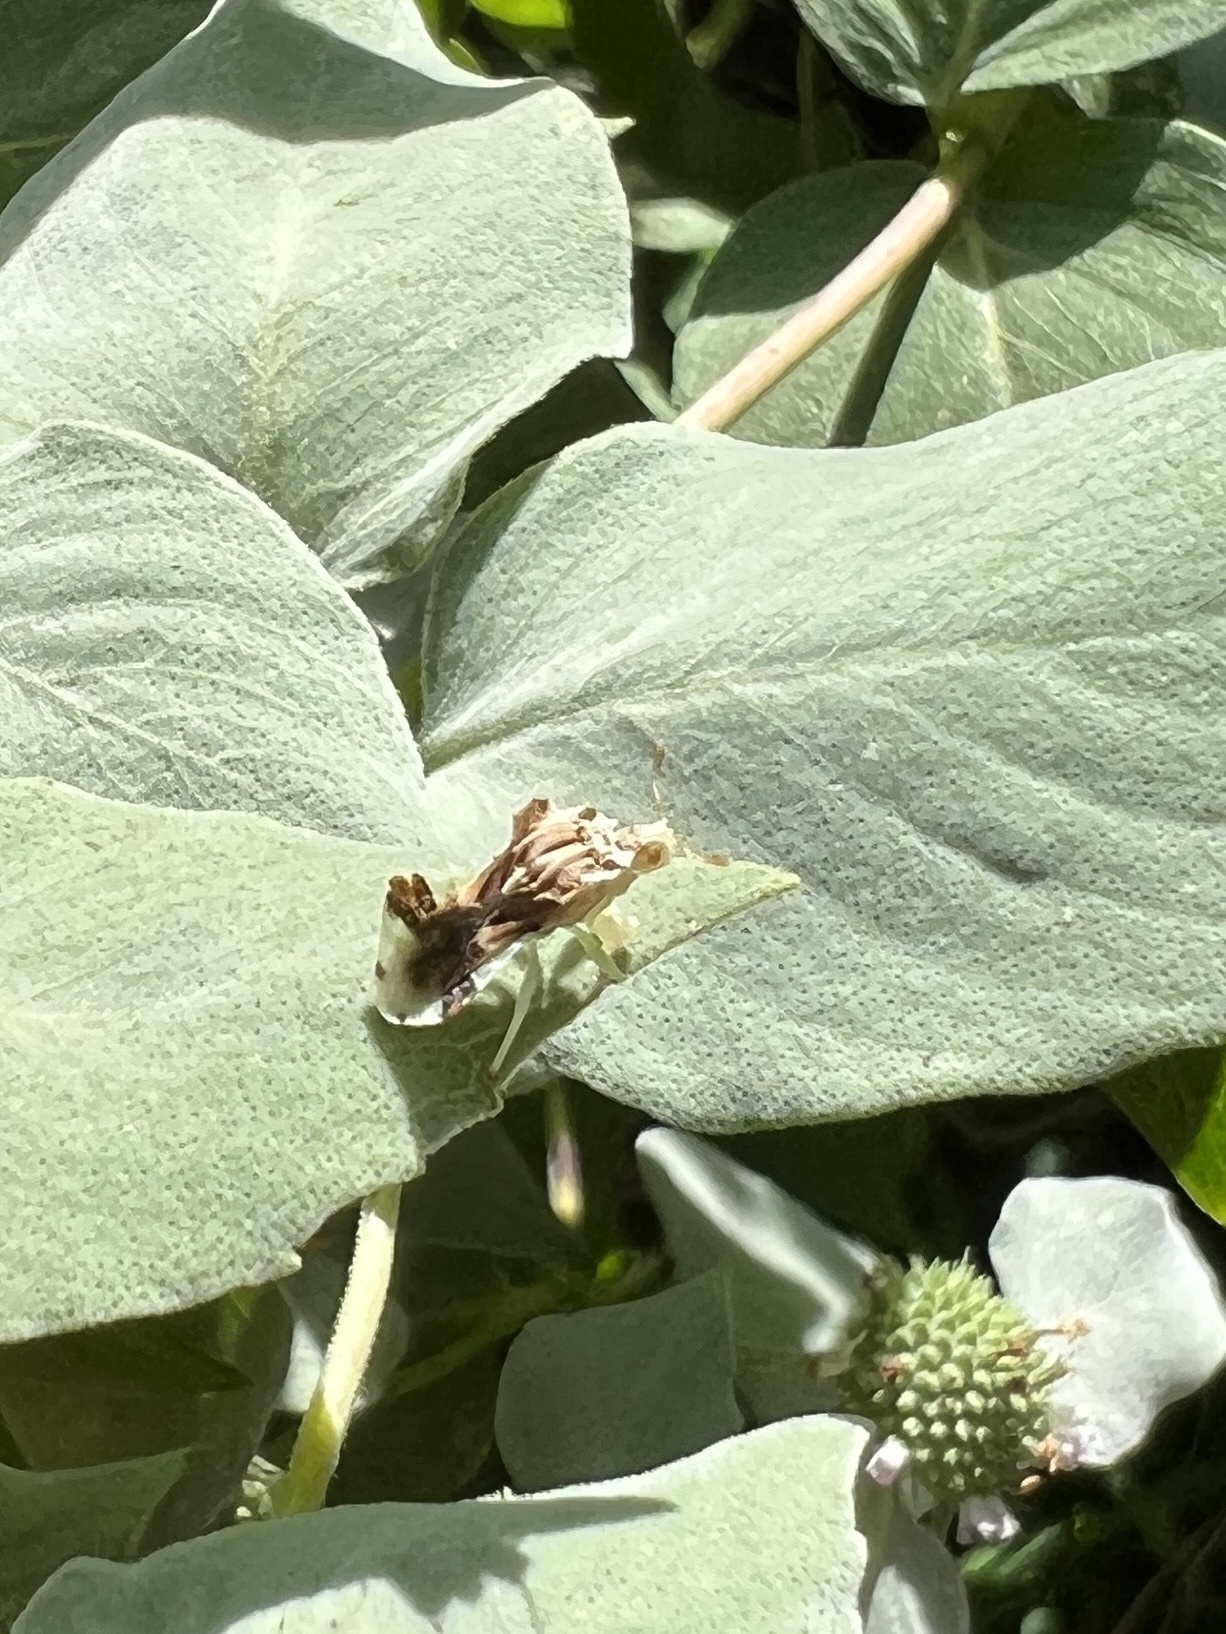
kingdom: Animalia
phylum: Arthropoda
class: Insecta
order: Hemiptera
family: Reduviidae
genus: Phymata
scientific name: Phymata fasciata
